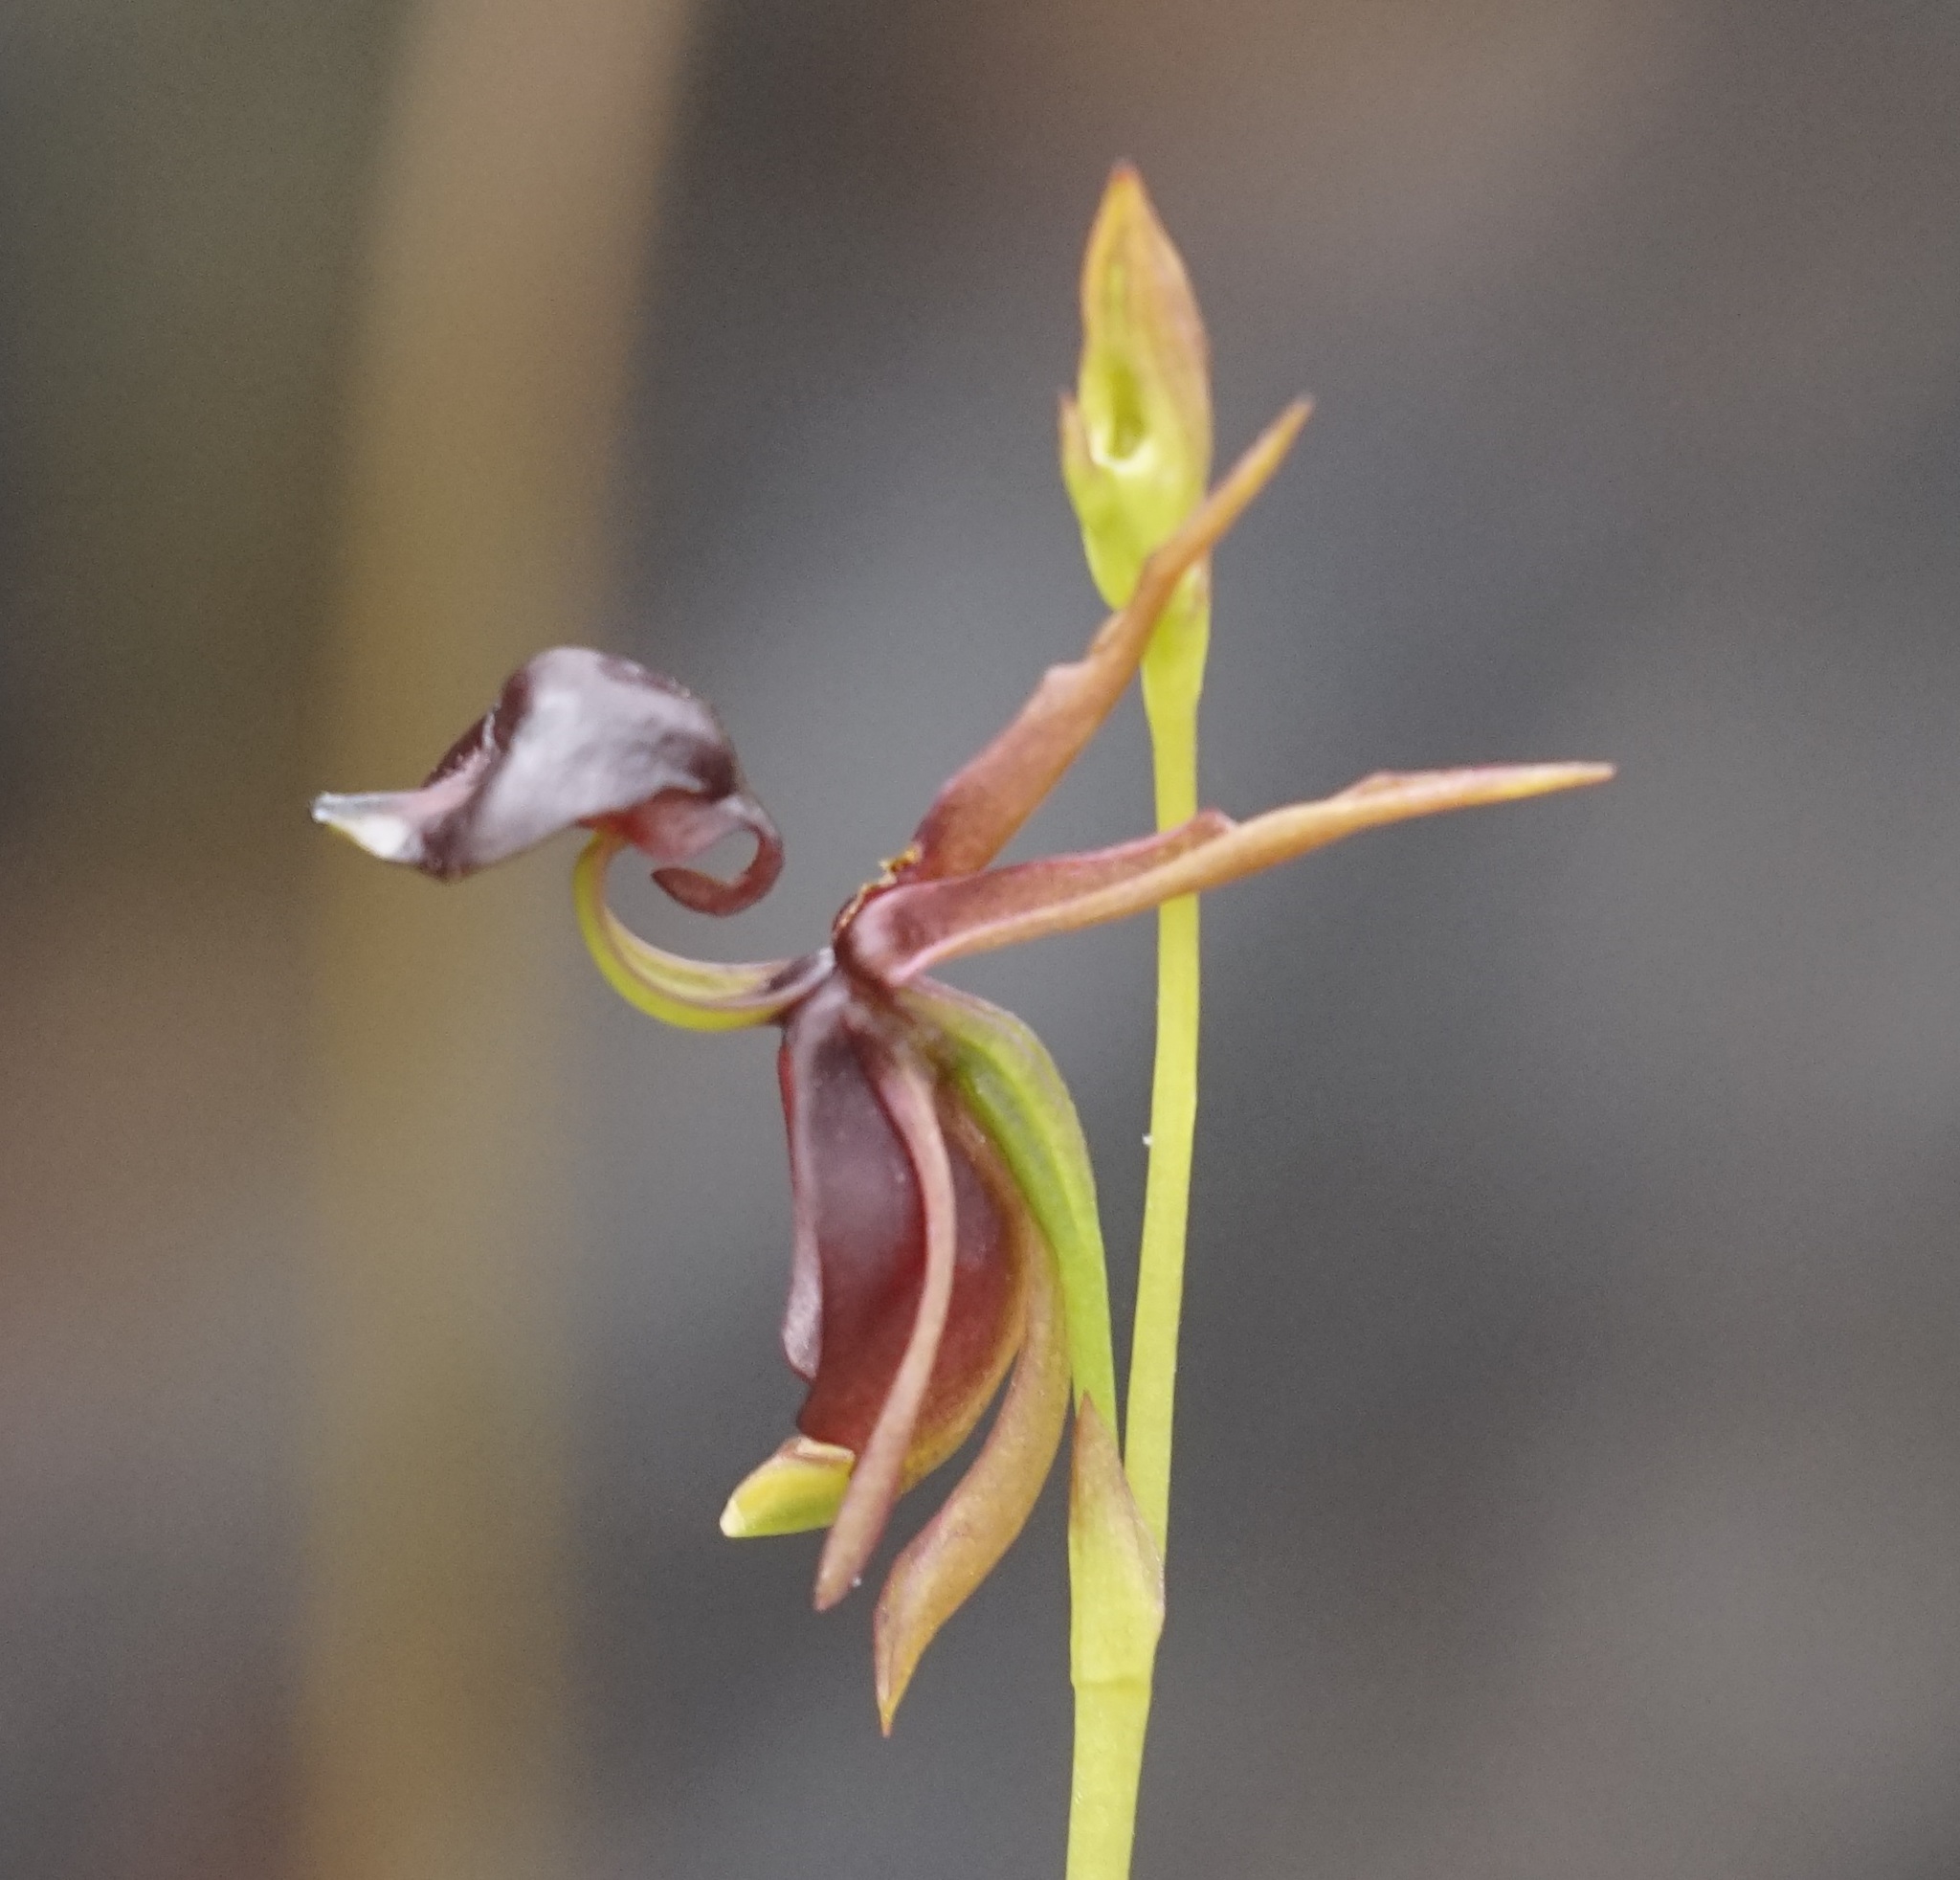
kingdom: Plantae
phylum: Tracheophyta
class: Liliopsida
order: Asparagales
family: Orchidaceae
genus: Caleana
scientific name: Caleana major
